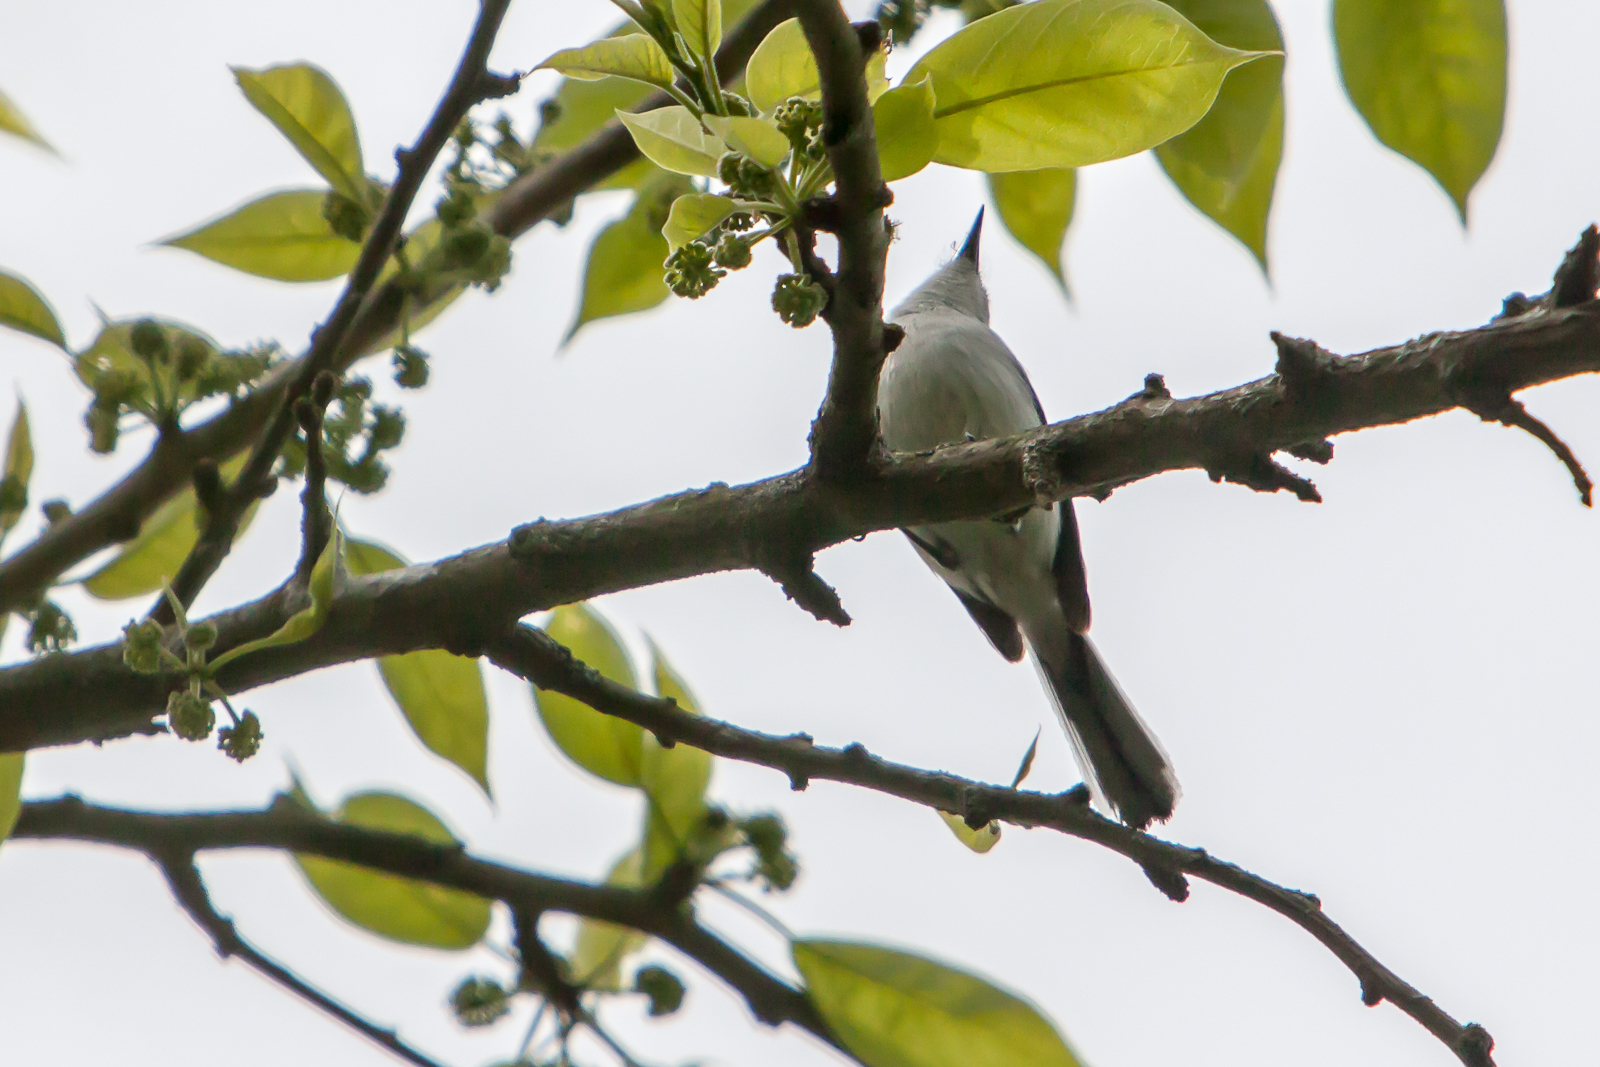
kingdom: Animalia
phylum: Chordata
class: Aves
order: Passeriformes
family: Polioptilidae
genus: Polioptila
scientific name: Polioptila caerulea
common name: Blue-gray gnatcatcher
